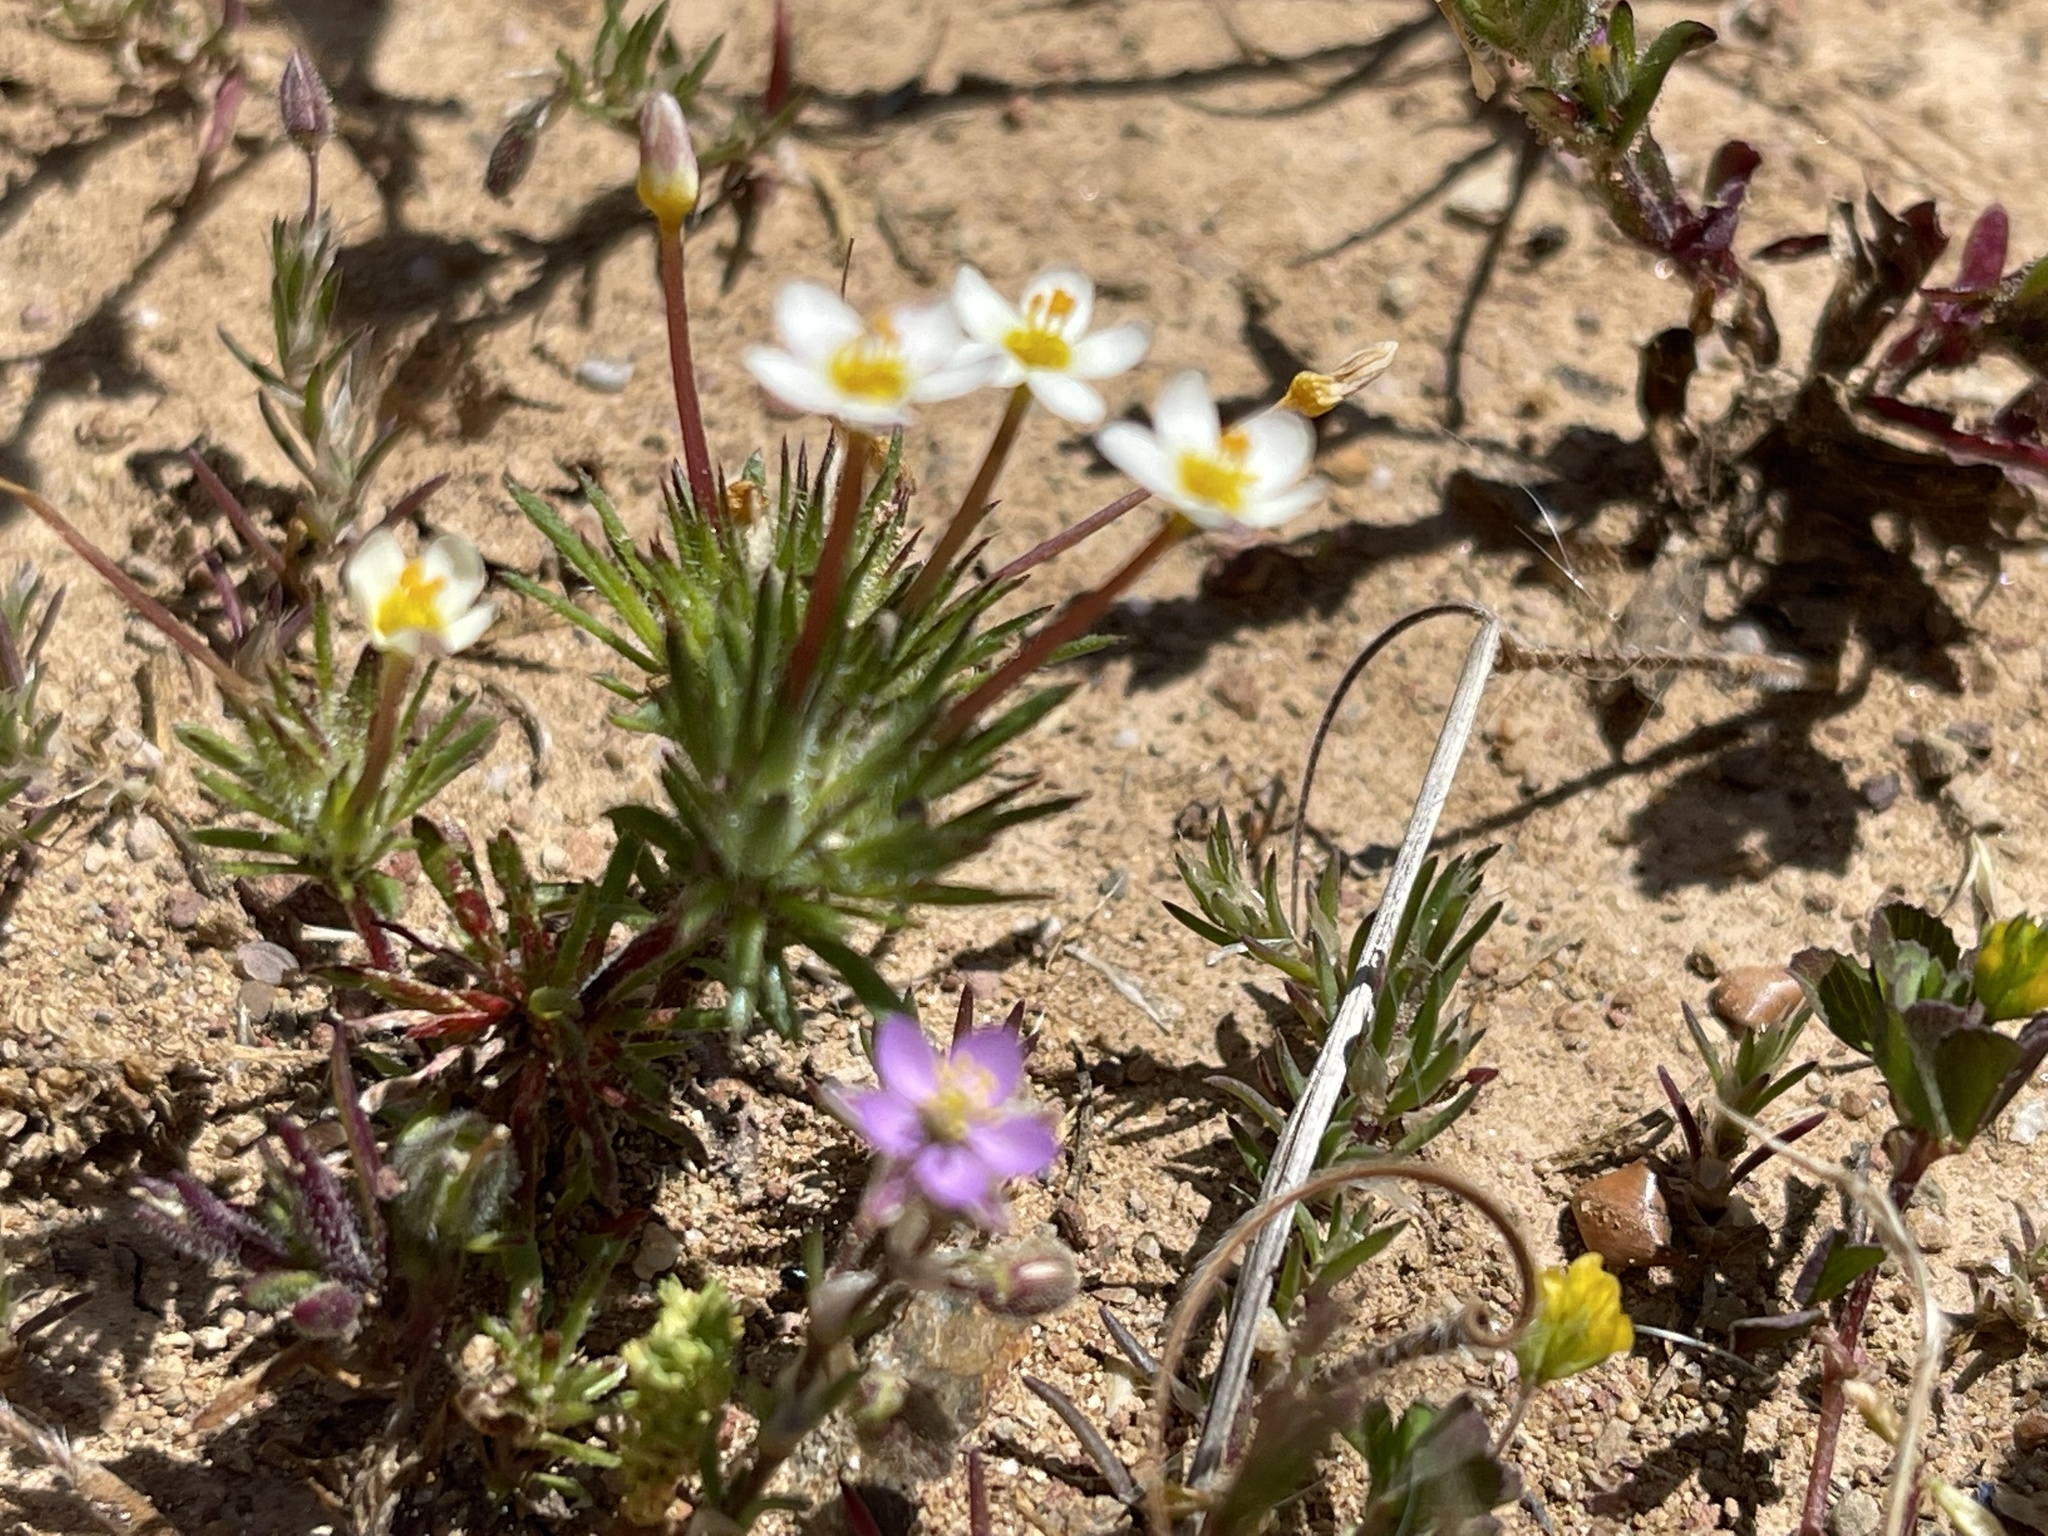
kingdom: Plantae
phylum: Tracheophyta
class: Magnoliopsida
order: Ericales
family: Polemoniaceae
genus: Leptosiphon
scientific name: Leptosiphon bicolor
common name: True babystars
